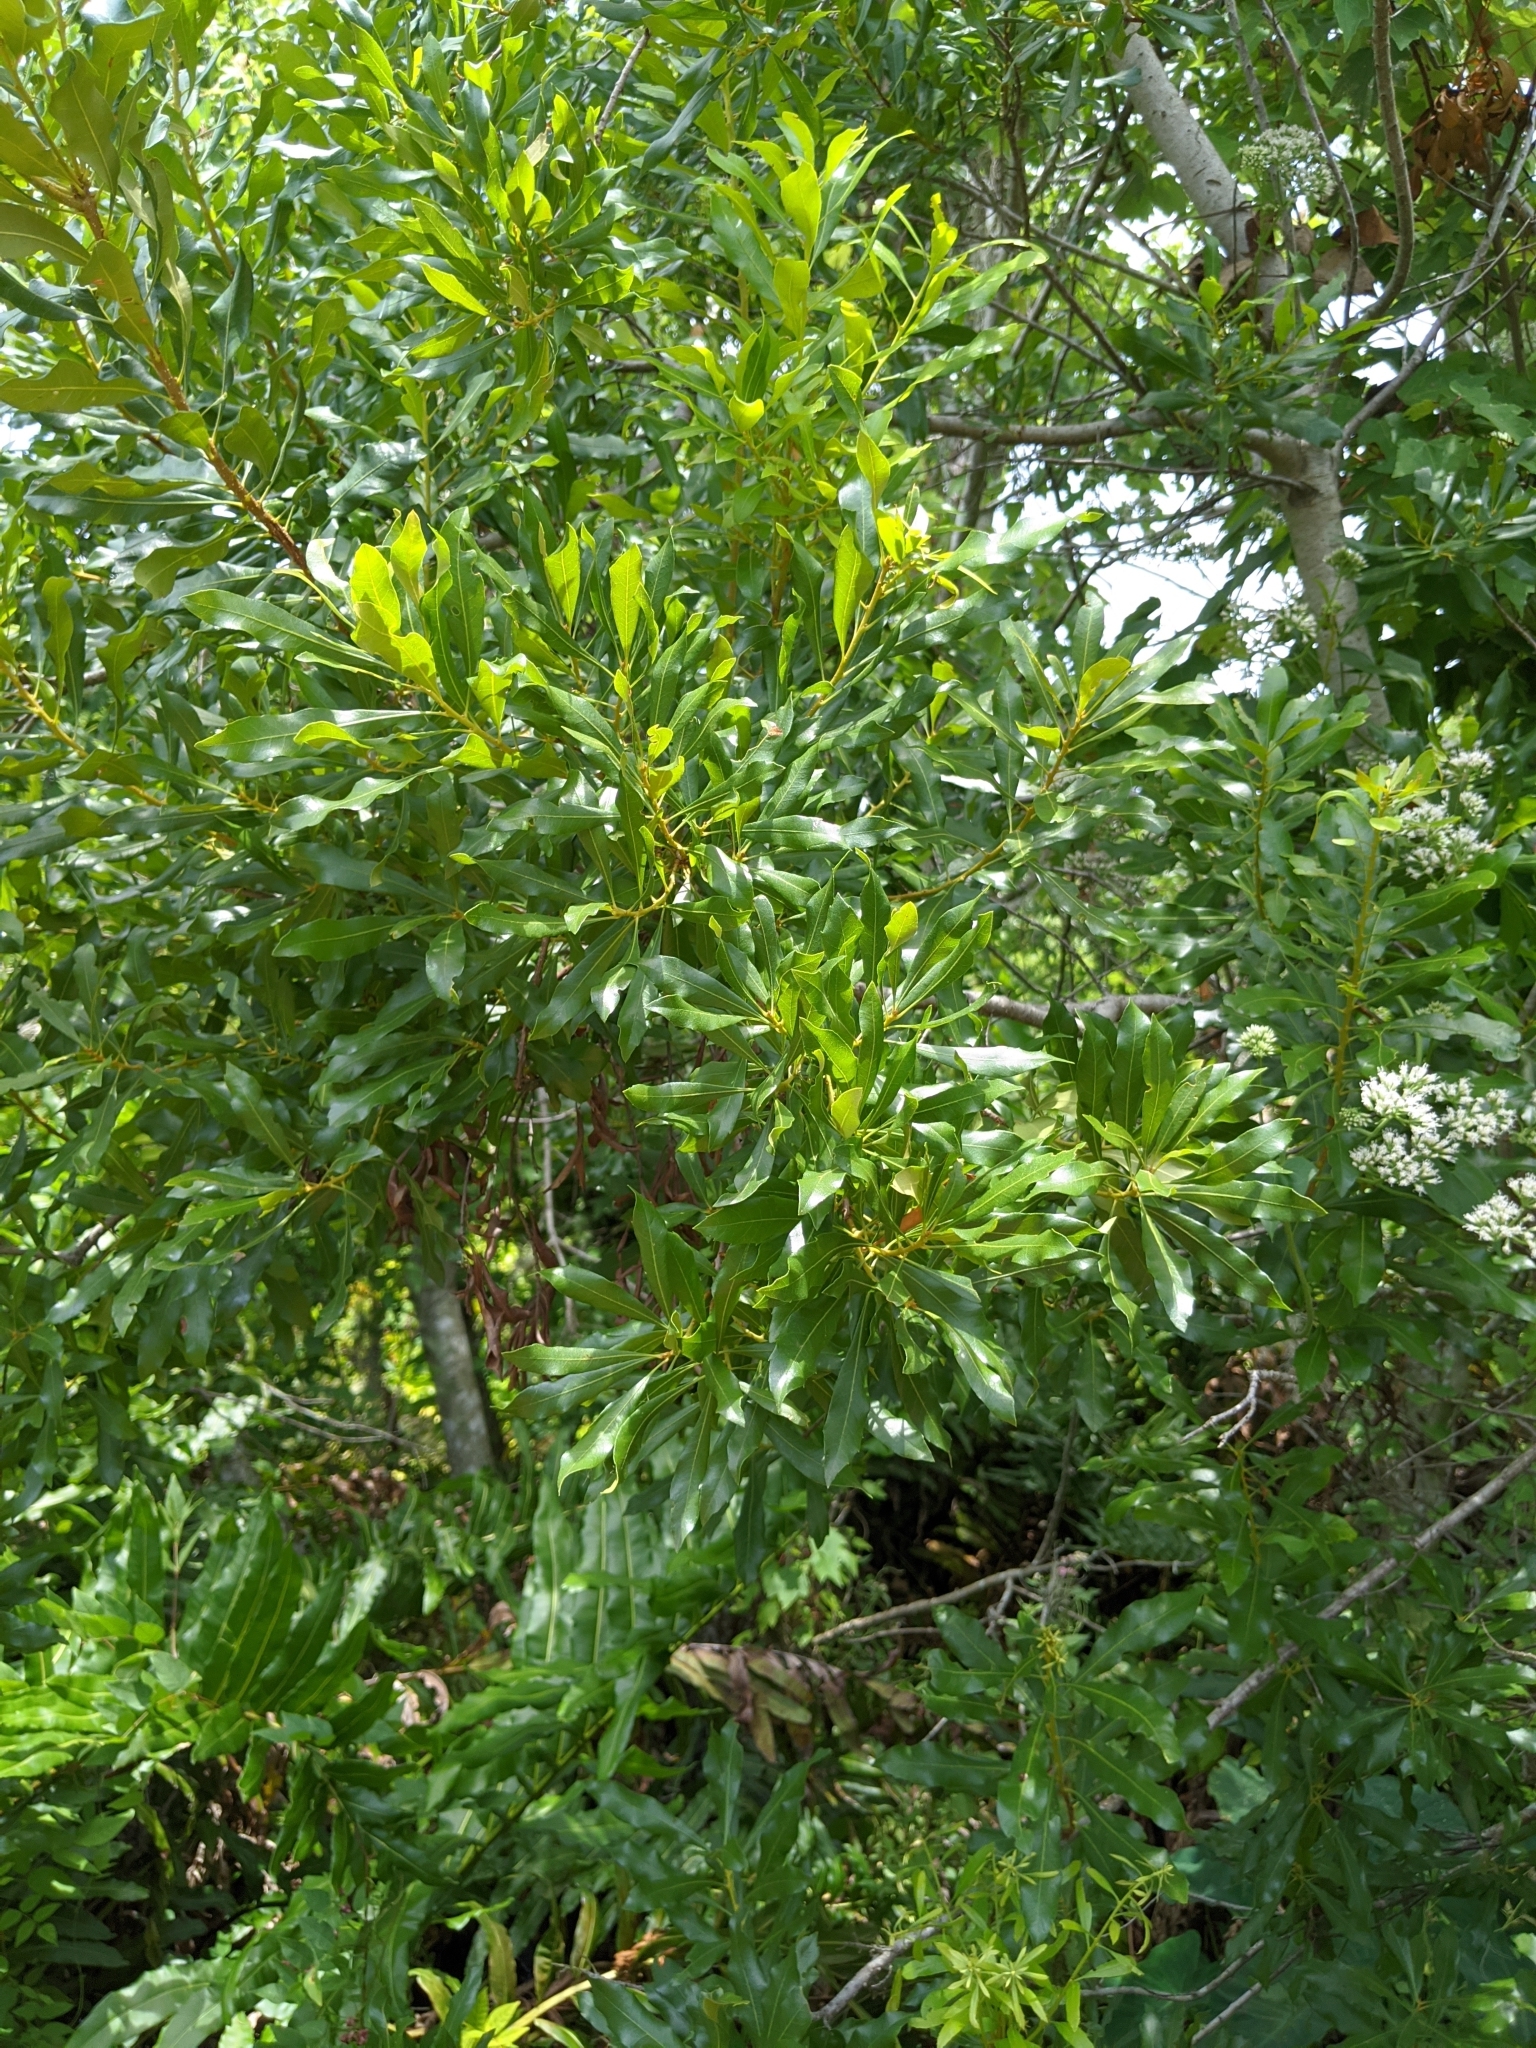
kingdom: Plantae
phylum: Tracheophyta
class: Magnoliopsida
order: Fagales
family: Myricaceae
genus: Morella
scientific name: Morella cerifera
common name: Wax myrtle
